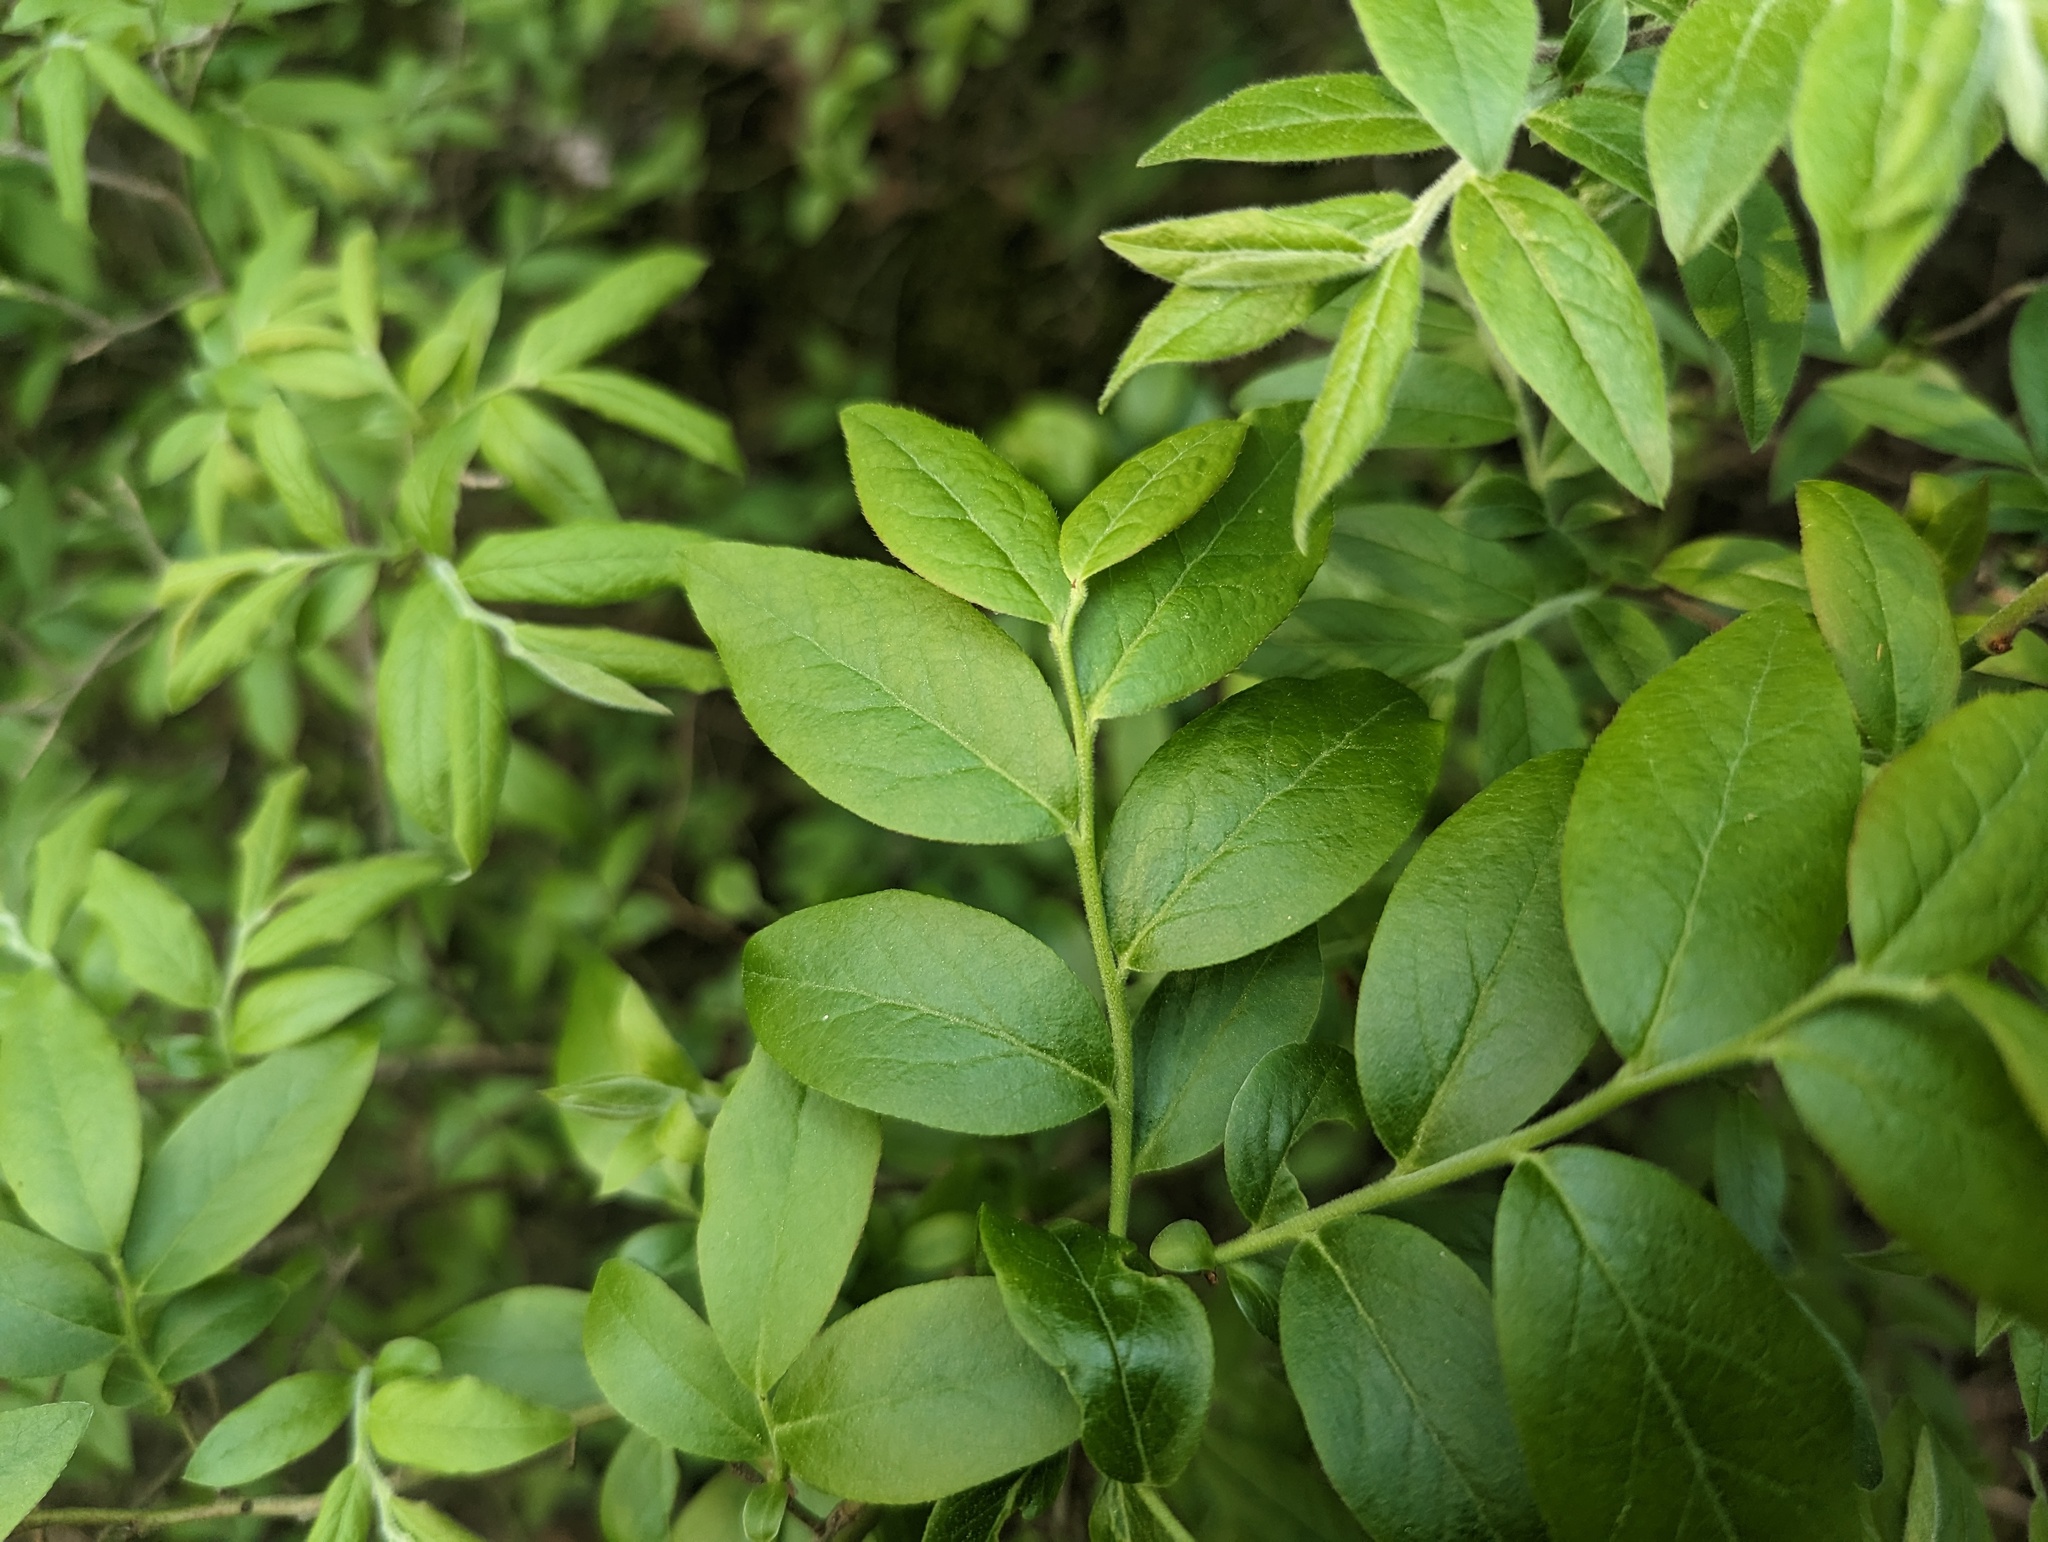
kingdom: Plantae
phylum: Tracheophyta
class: Magnoliopsida
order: Ericales
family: Ericaceae
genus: Vaccinium
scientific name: Vaccinium myrtilloides
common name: Canada blueberry
